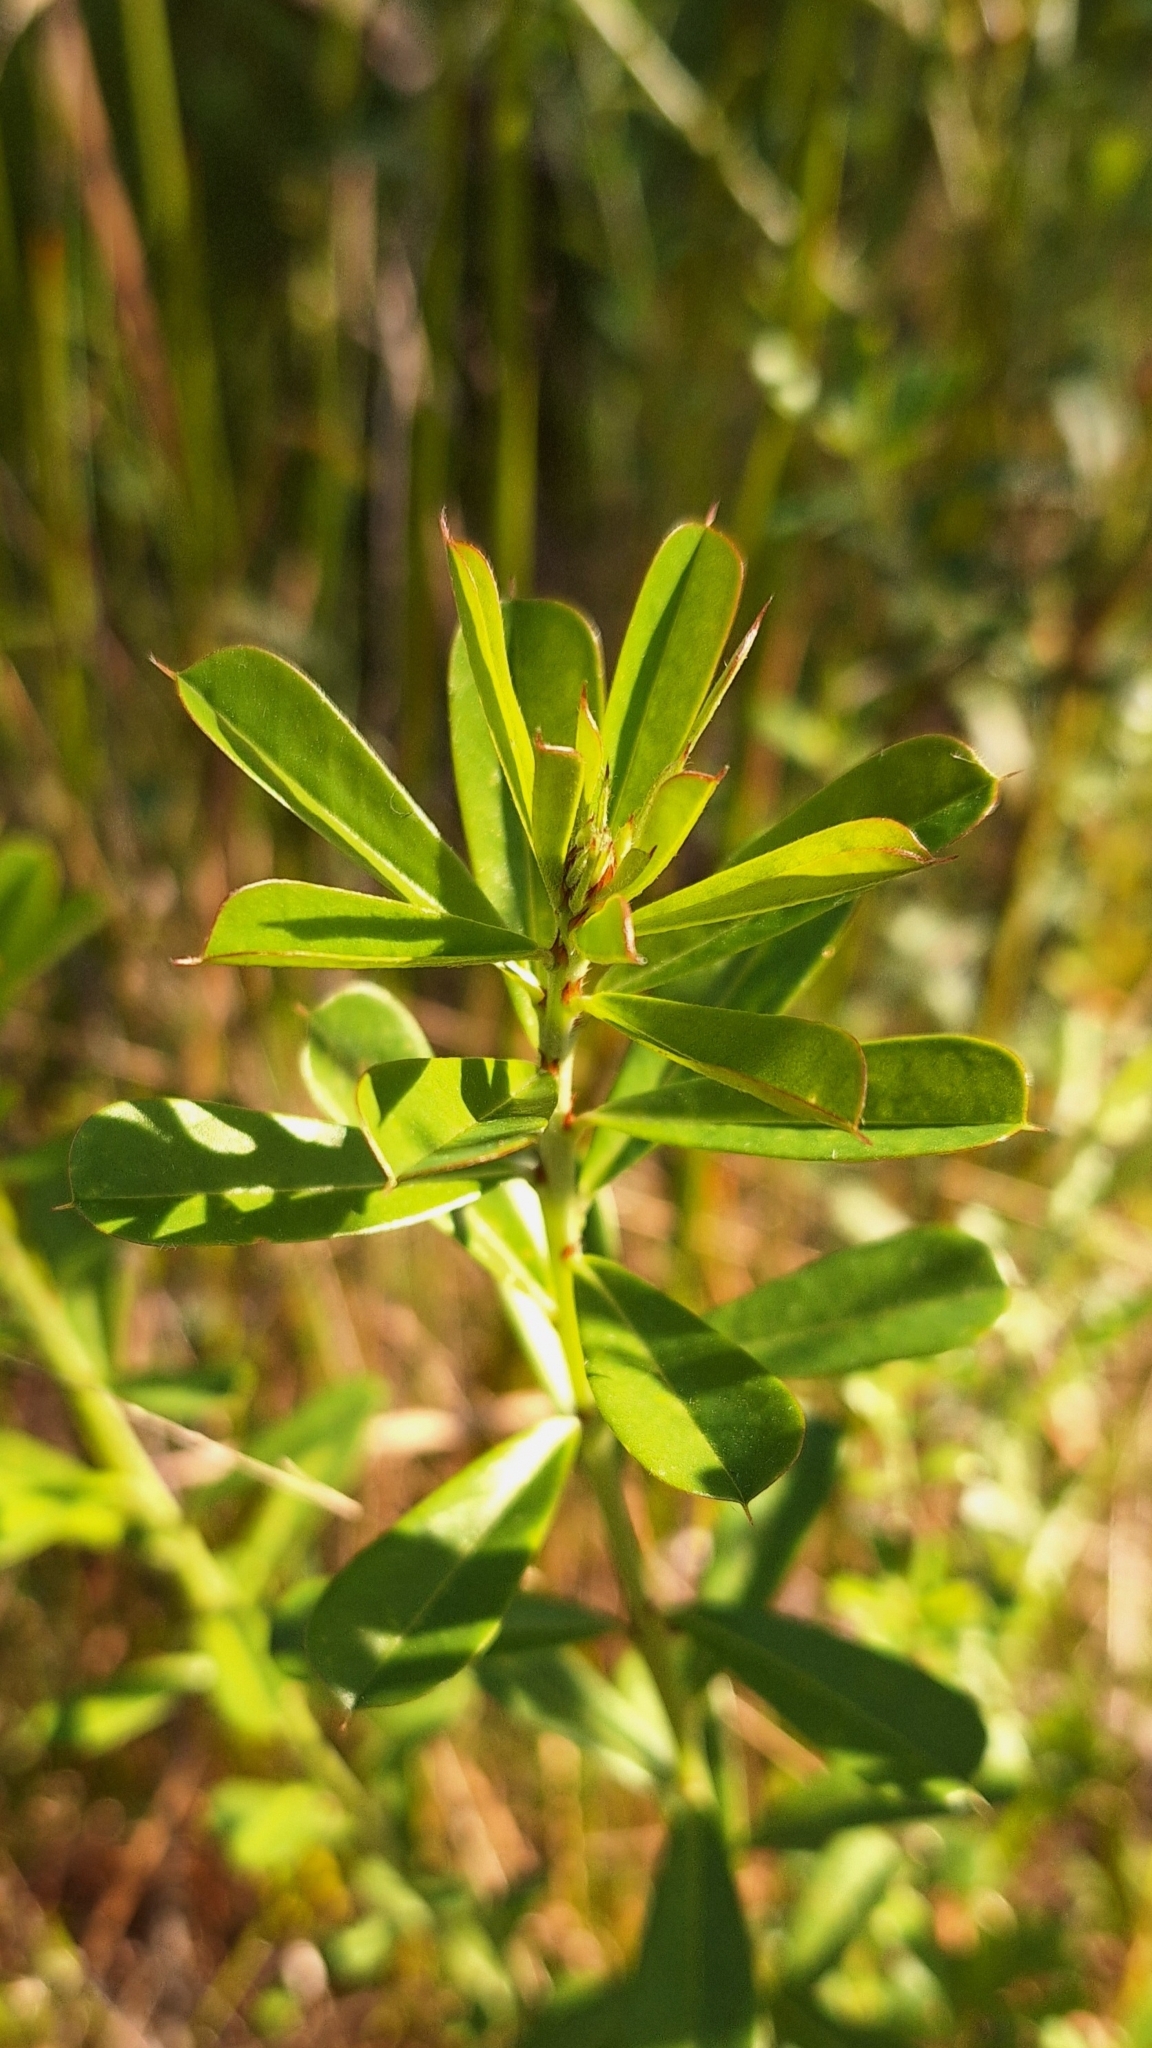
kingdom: Plantae
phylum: Tracheophyta
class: Magnoliopsida
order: Fabales
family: Fabaceae
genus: Pultenaea
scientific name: Pultenaea daphnoides
